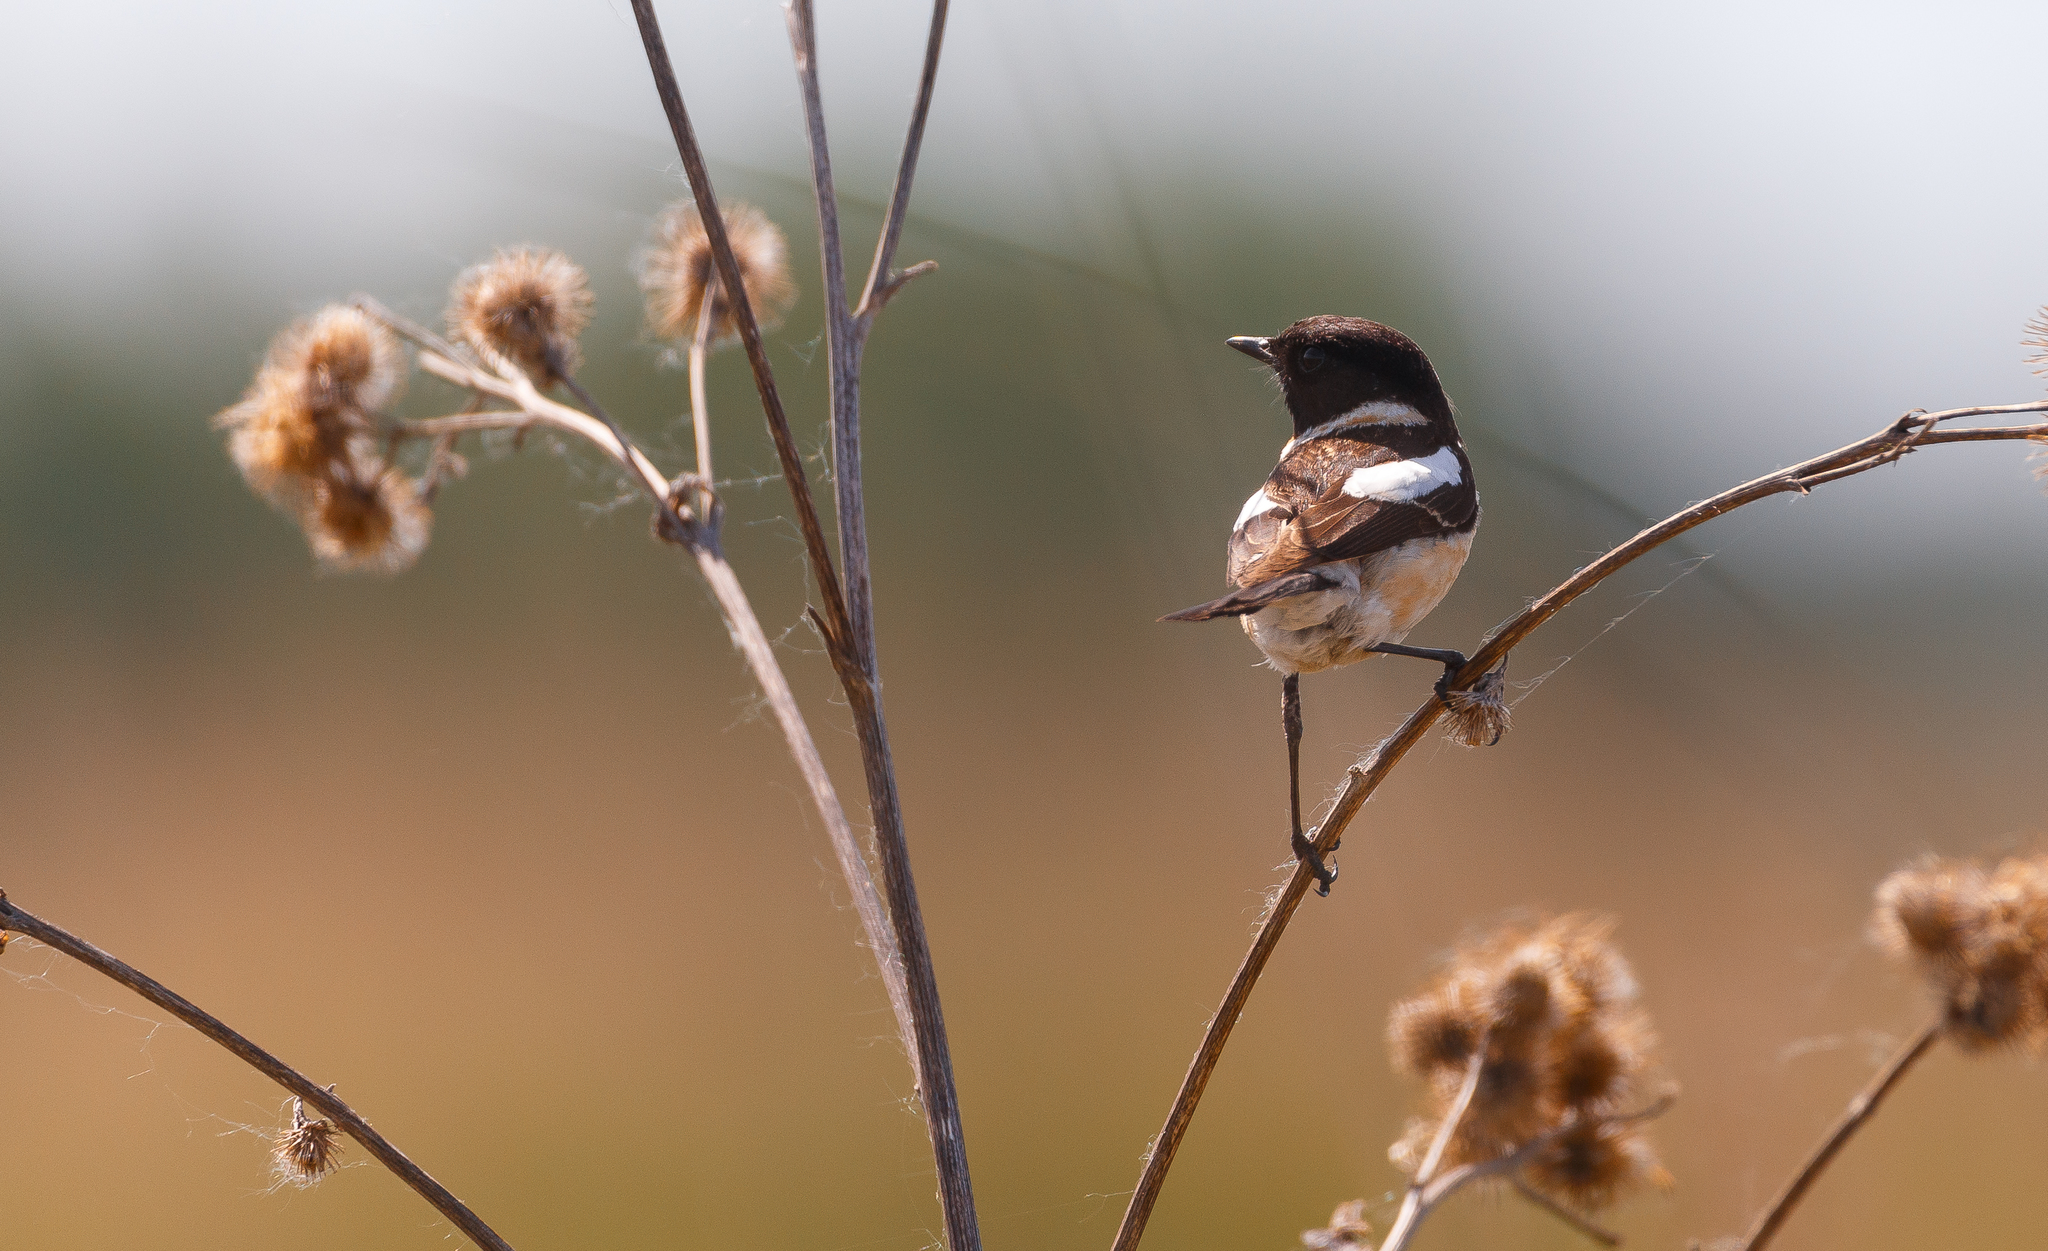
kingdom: Animalia
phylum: Chordata
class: Aves
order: Passeriformes
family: Muscicapidae
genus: Saxicola
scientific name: Saxicola maurus
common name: Siberian stonechat
